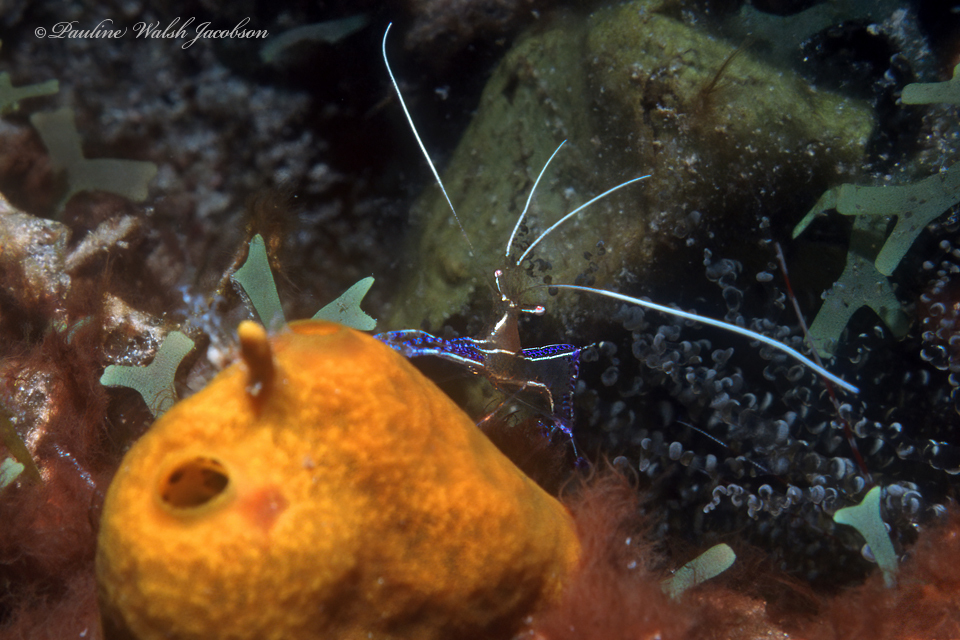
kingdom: Animalia
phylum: Arthropoda
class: Malacostraca
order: Decapoda
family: Palaemonidae
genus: Ancylomenes
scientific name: Ancylomenes pedersoni
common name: Pederson's cleaning shrimp
